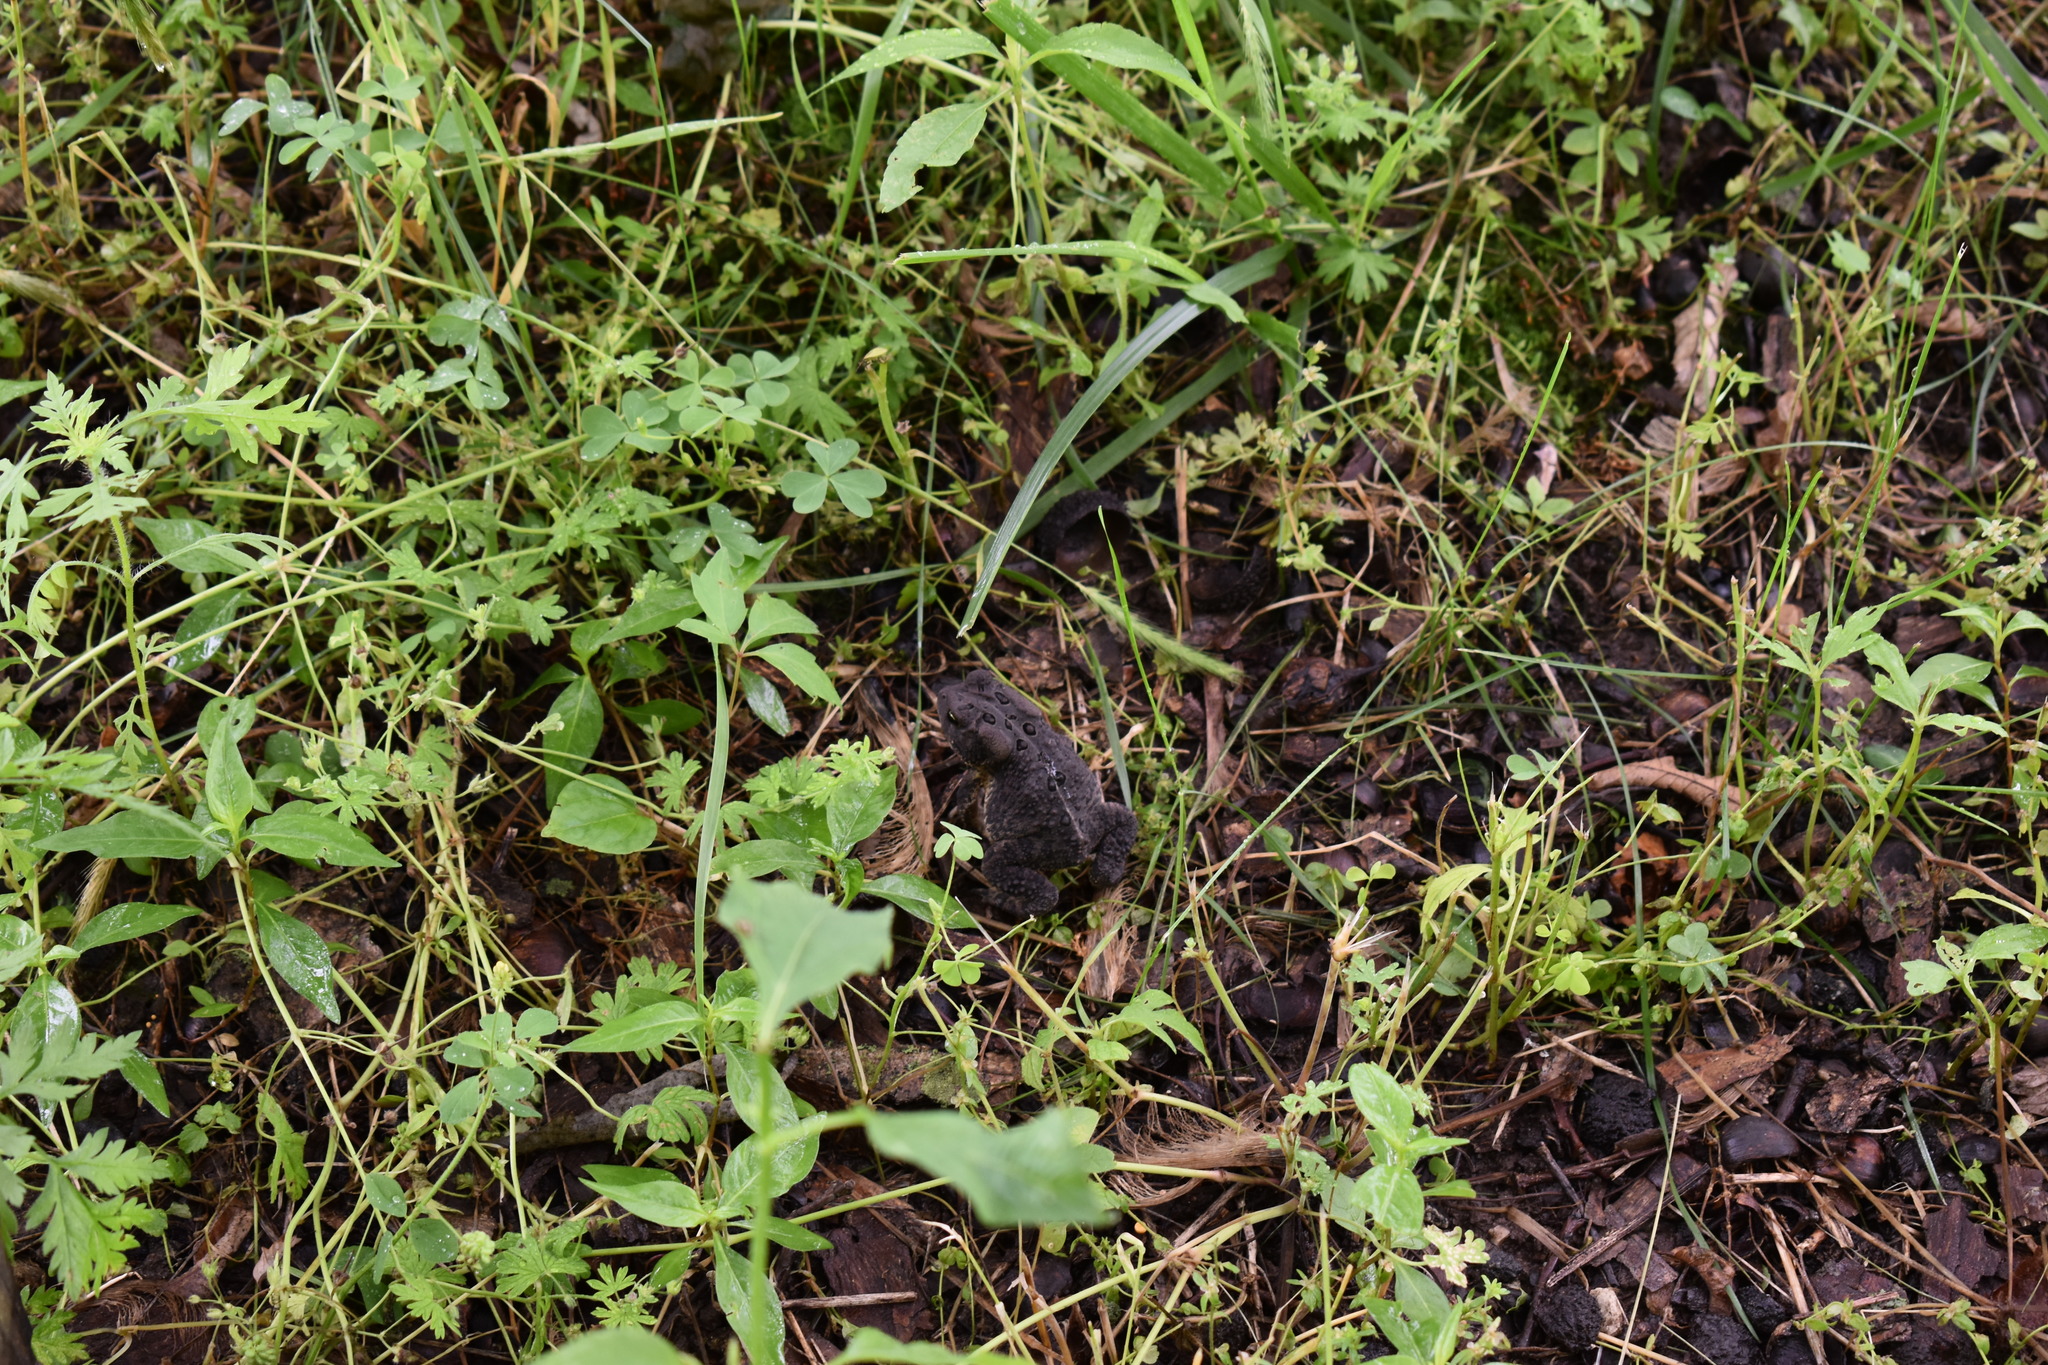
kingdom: Animalia
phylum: Chordata
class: Amphibia
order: Anura
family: Bufonidae
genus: Anaxyrus
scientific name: Anaxyrus americanus
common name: American toad
